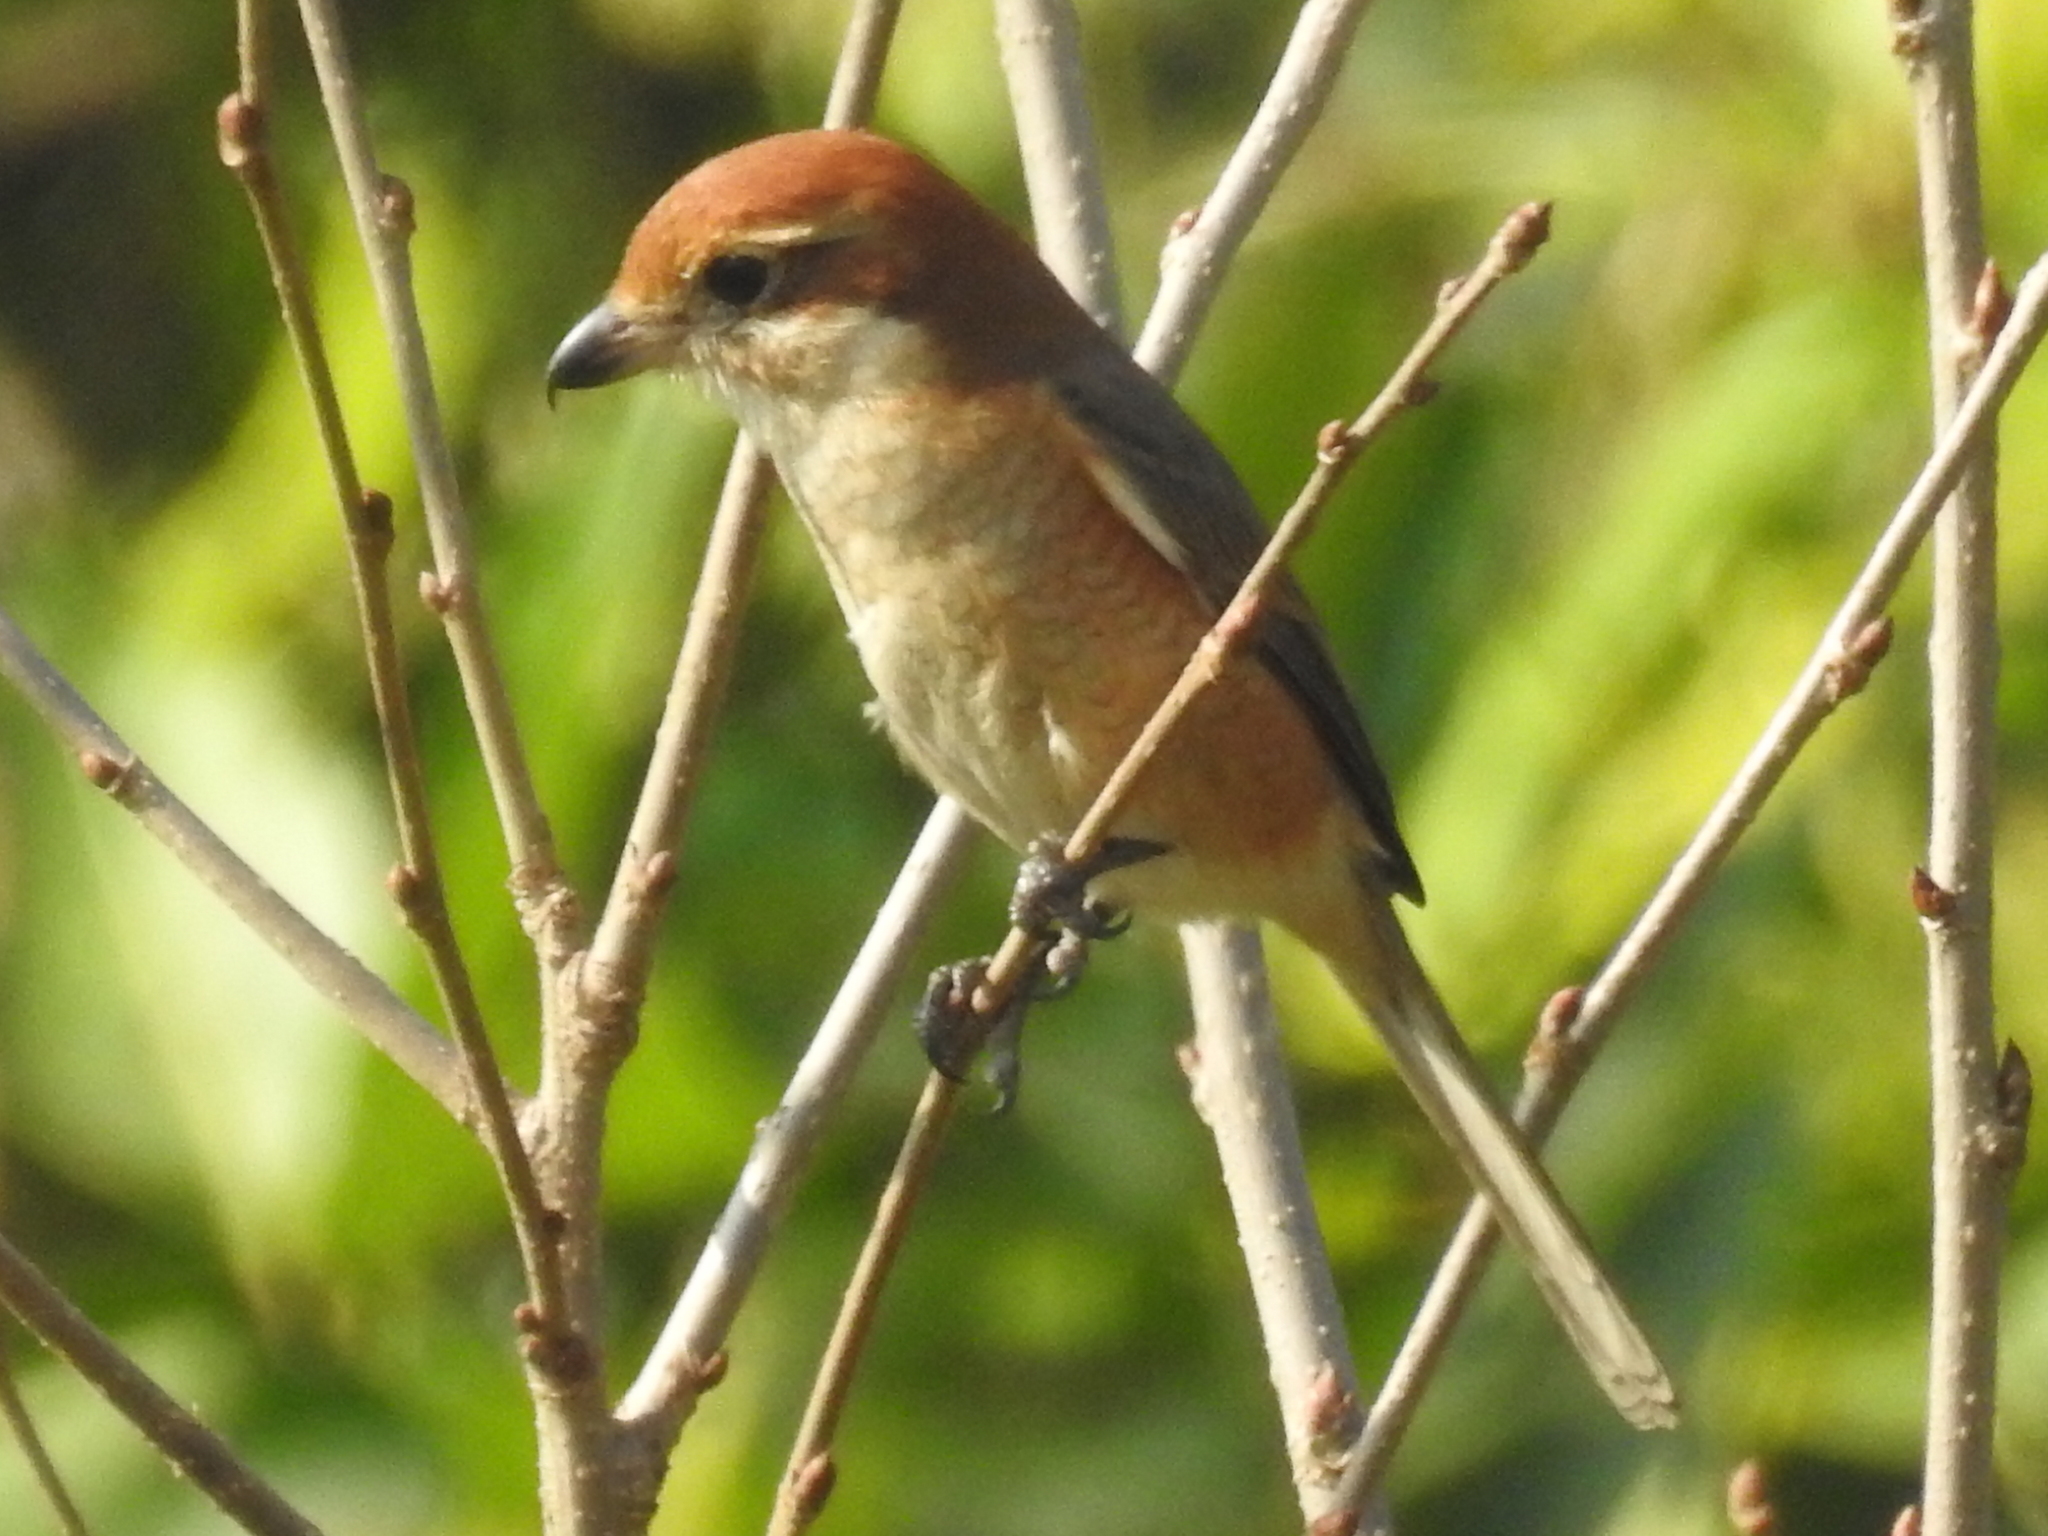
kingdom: Animalia
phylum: Chordata
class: Aves
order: Passeriformes
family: Laniidae
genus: Lanius
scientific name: Lanius bucephalus
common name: Bull-headed shrike
